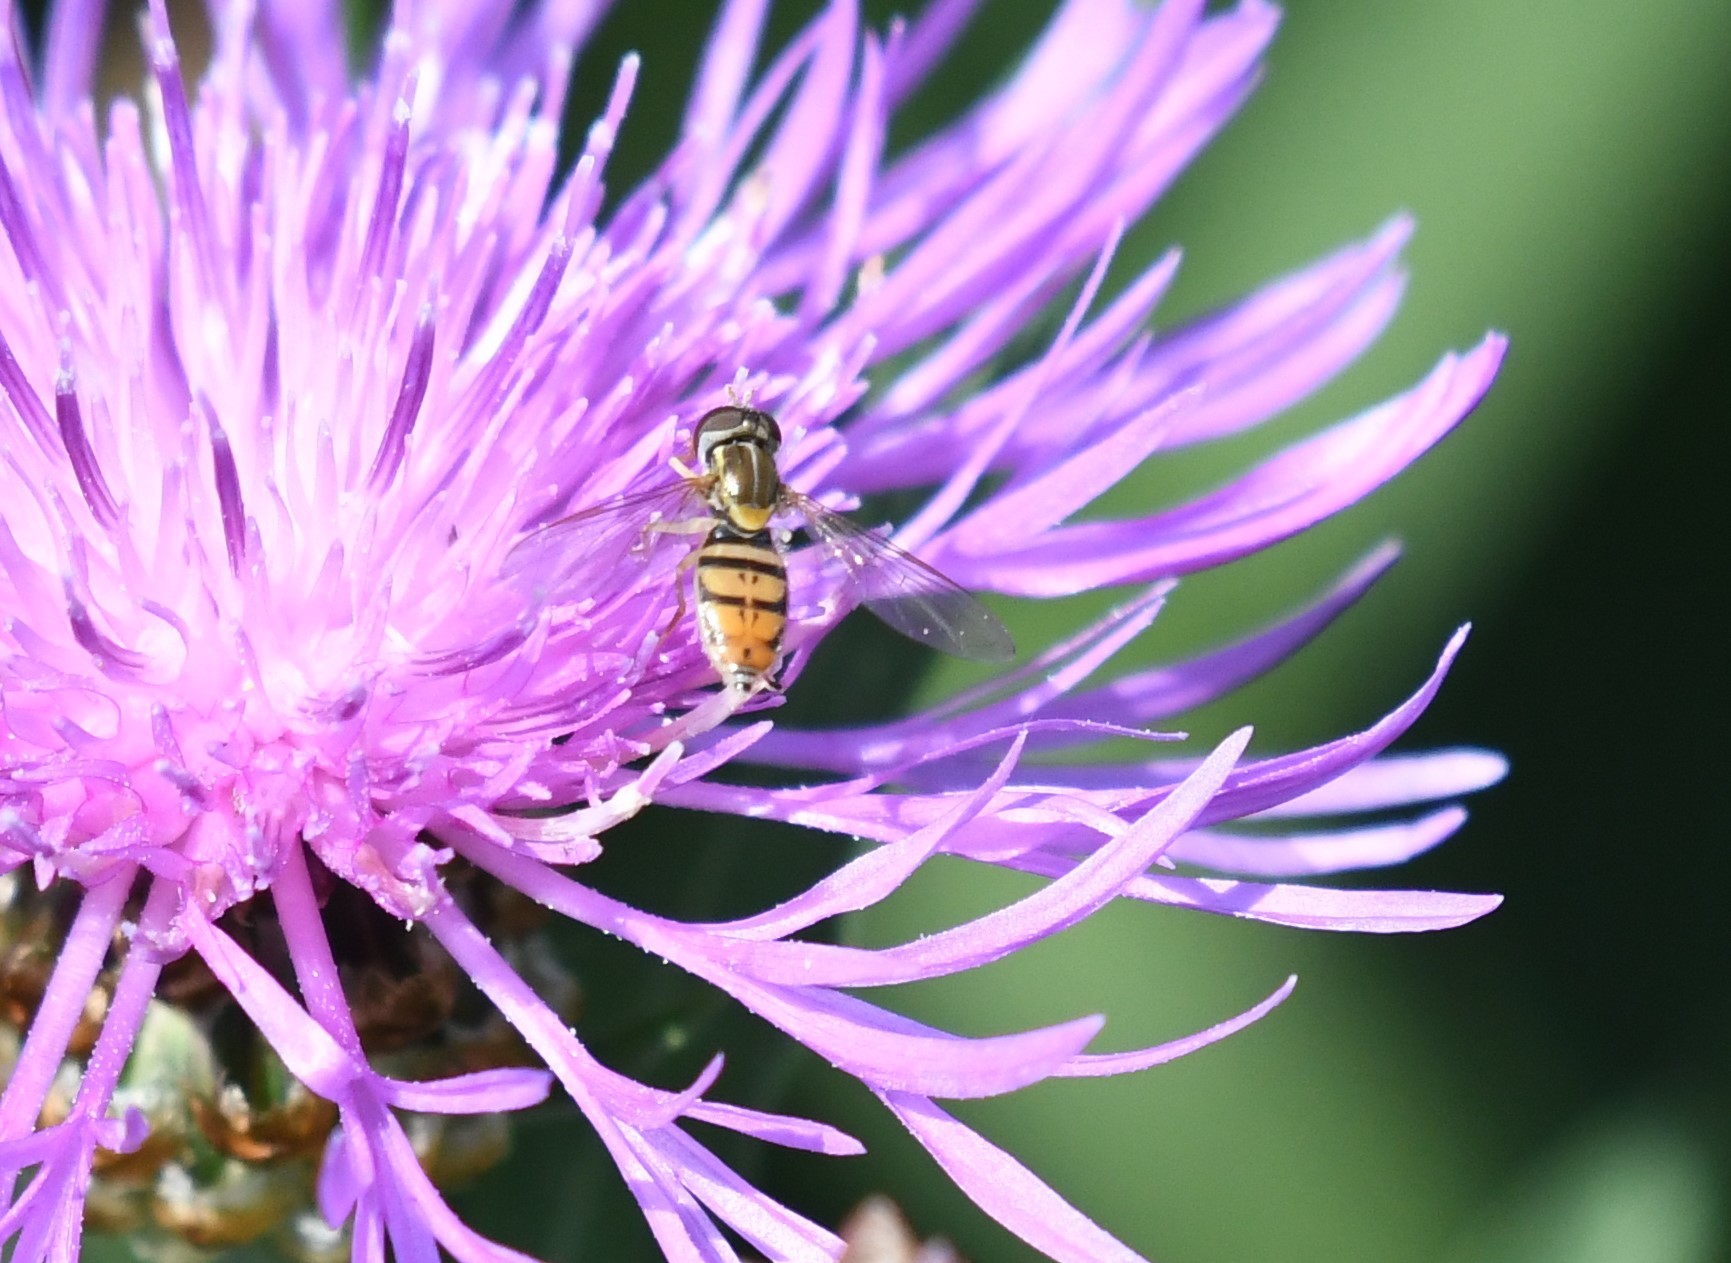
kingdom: Animalia
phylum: Arthropoda
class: Insecta
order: Diptera
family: Syrphidae
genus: Toxomerus
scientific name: Toxomerus marginatus
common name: Syrphid fly
